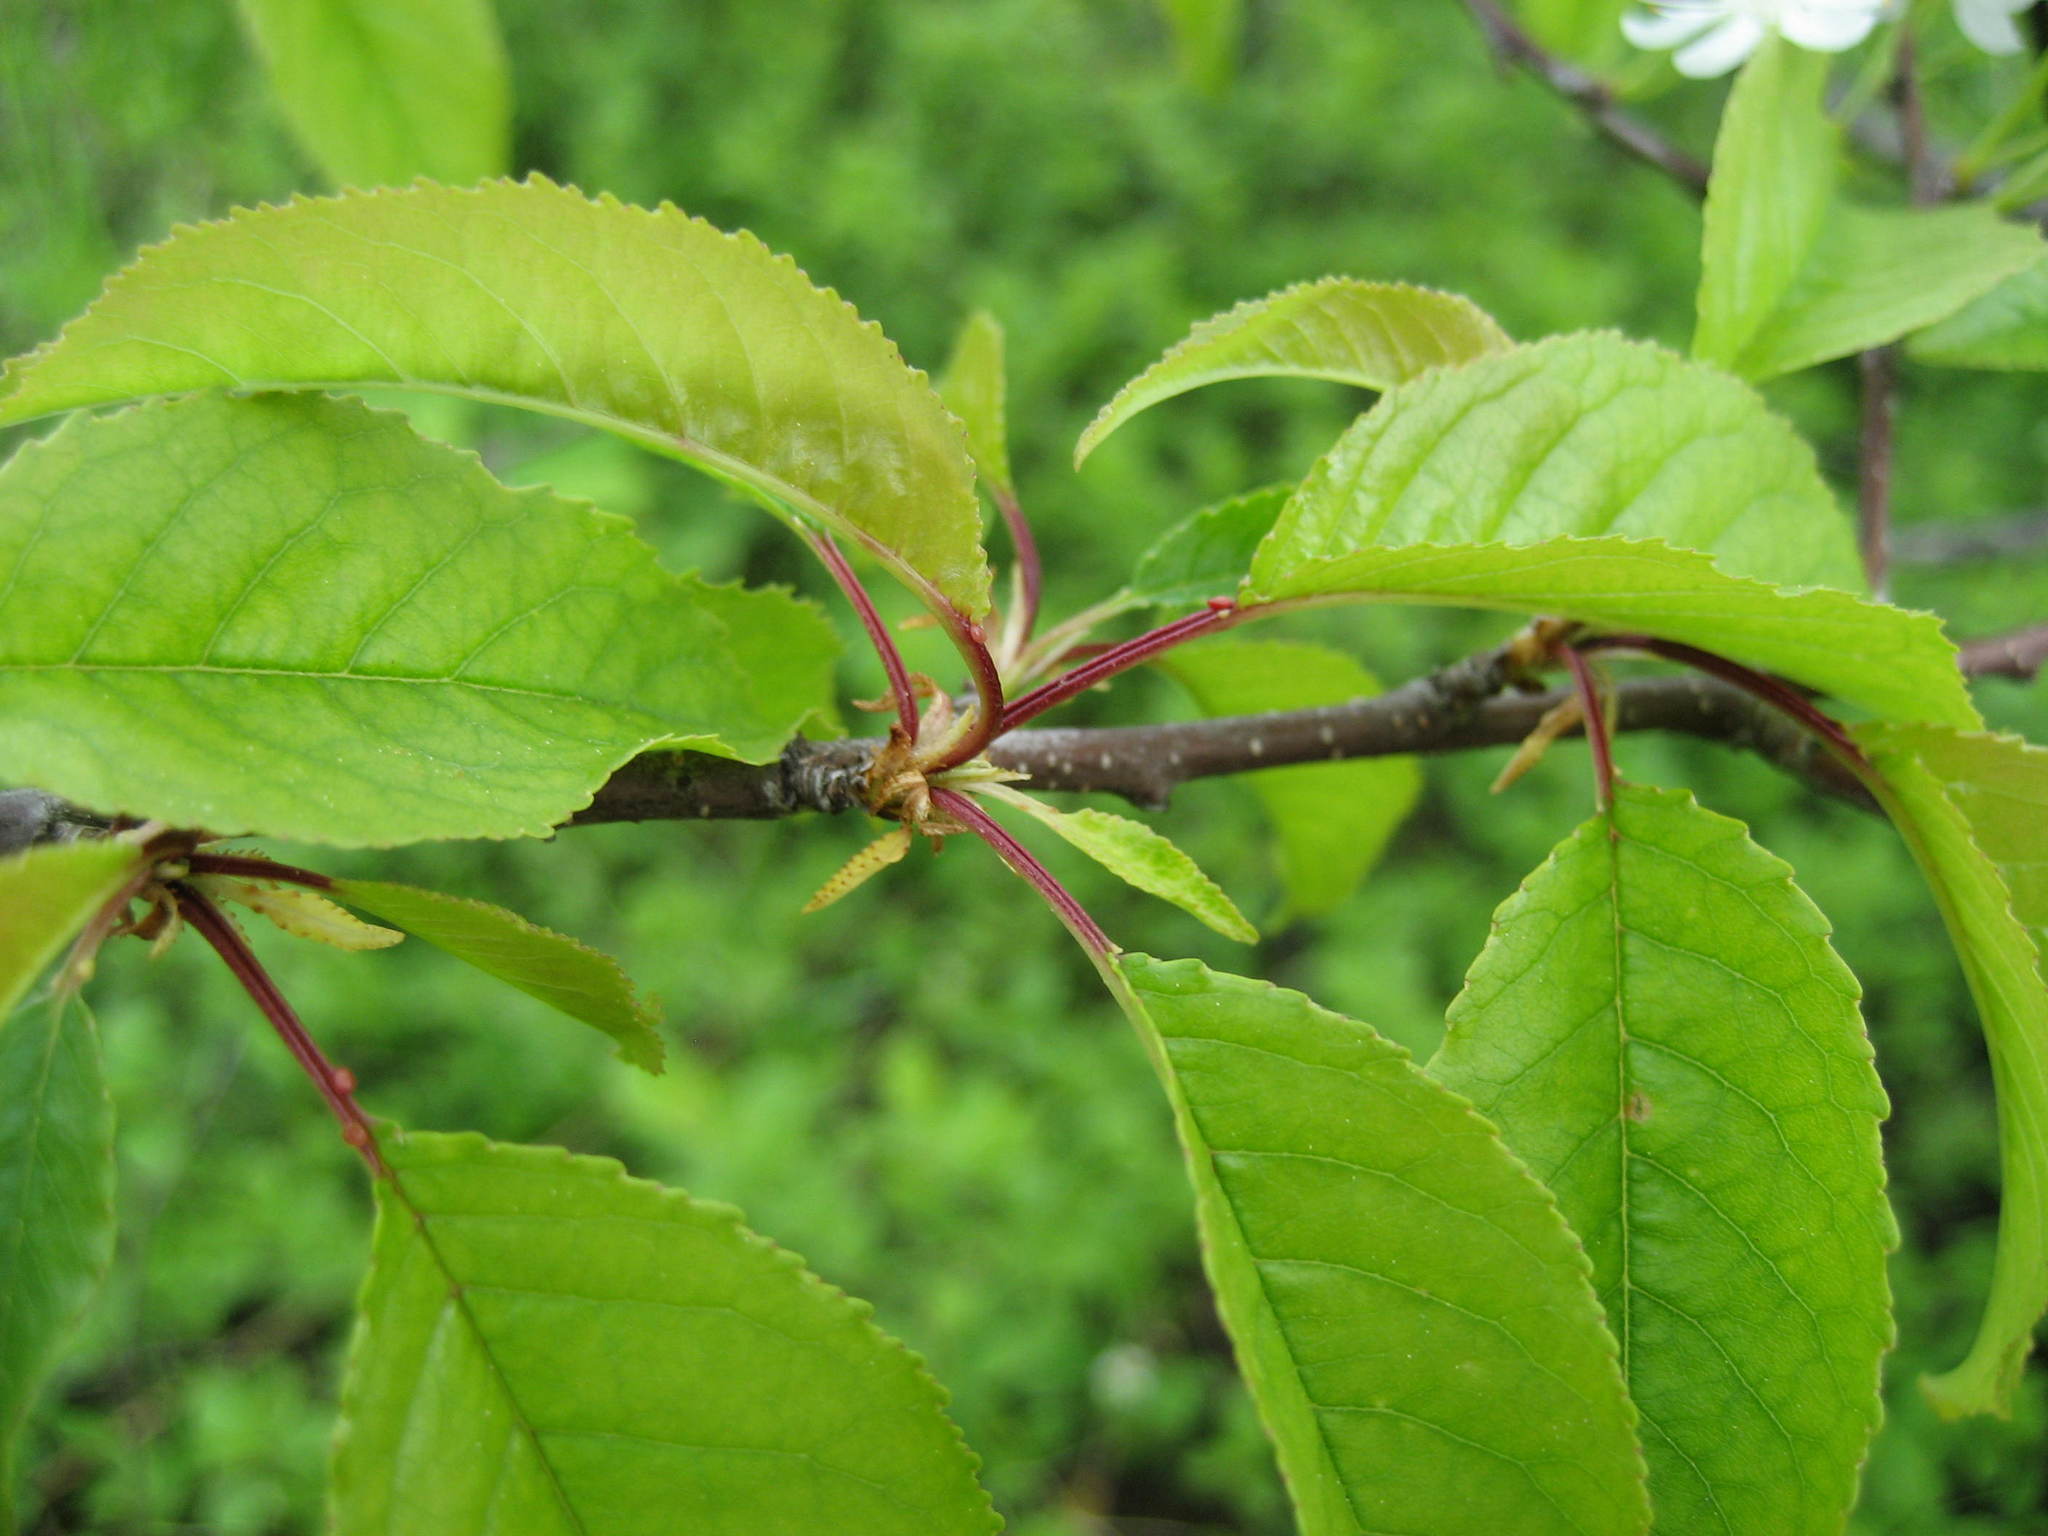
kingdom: Plantae
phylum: Tracheophyta
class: Magnoliopsida
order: Rosales
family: Rosaceae
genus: Prunus
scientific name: Prunus pensylvanica
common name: Pin cherry
